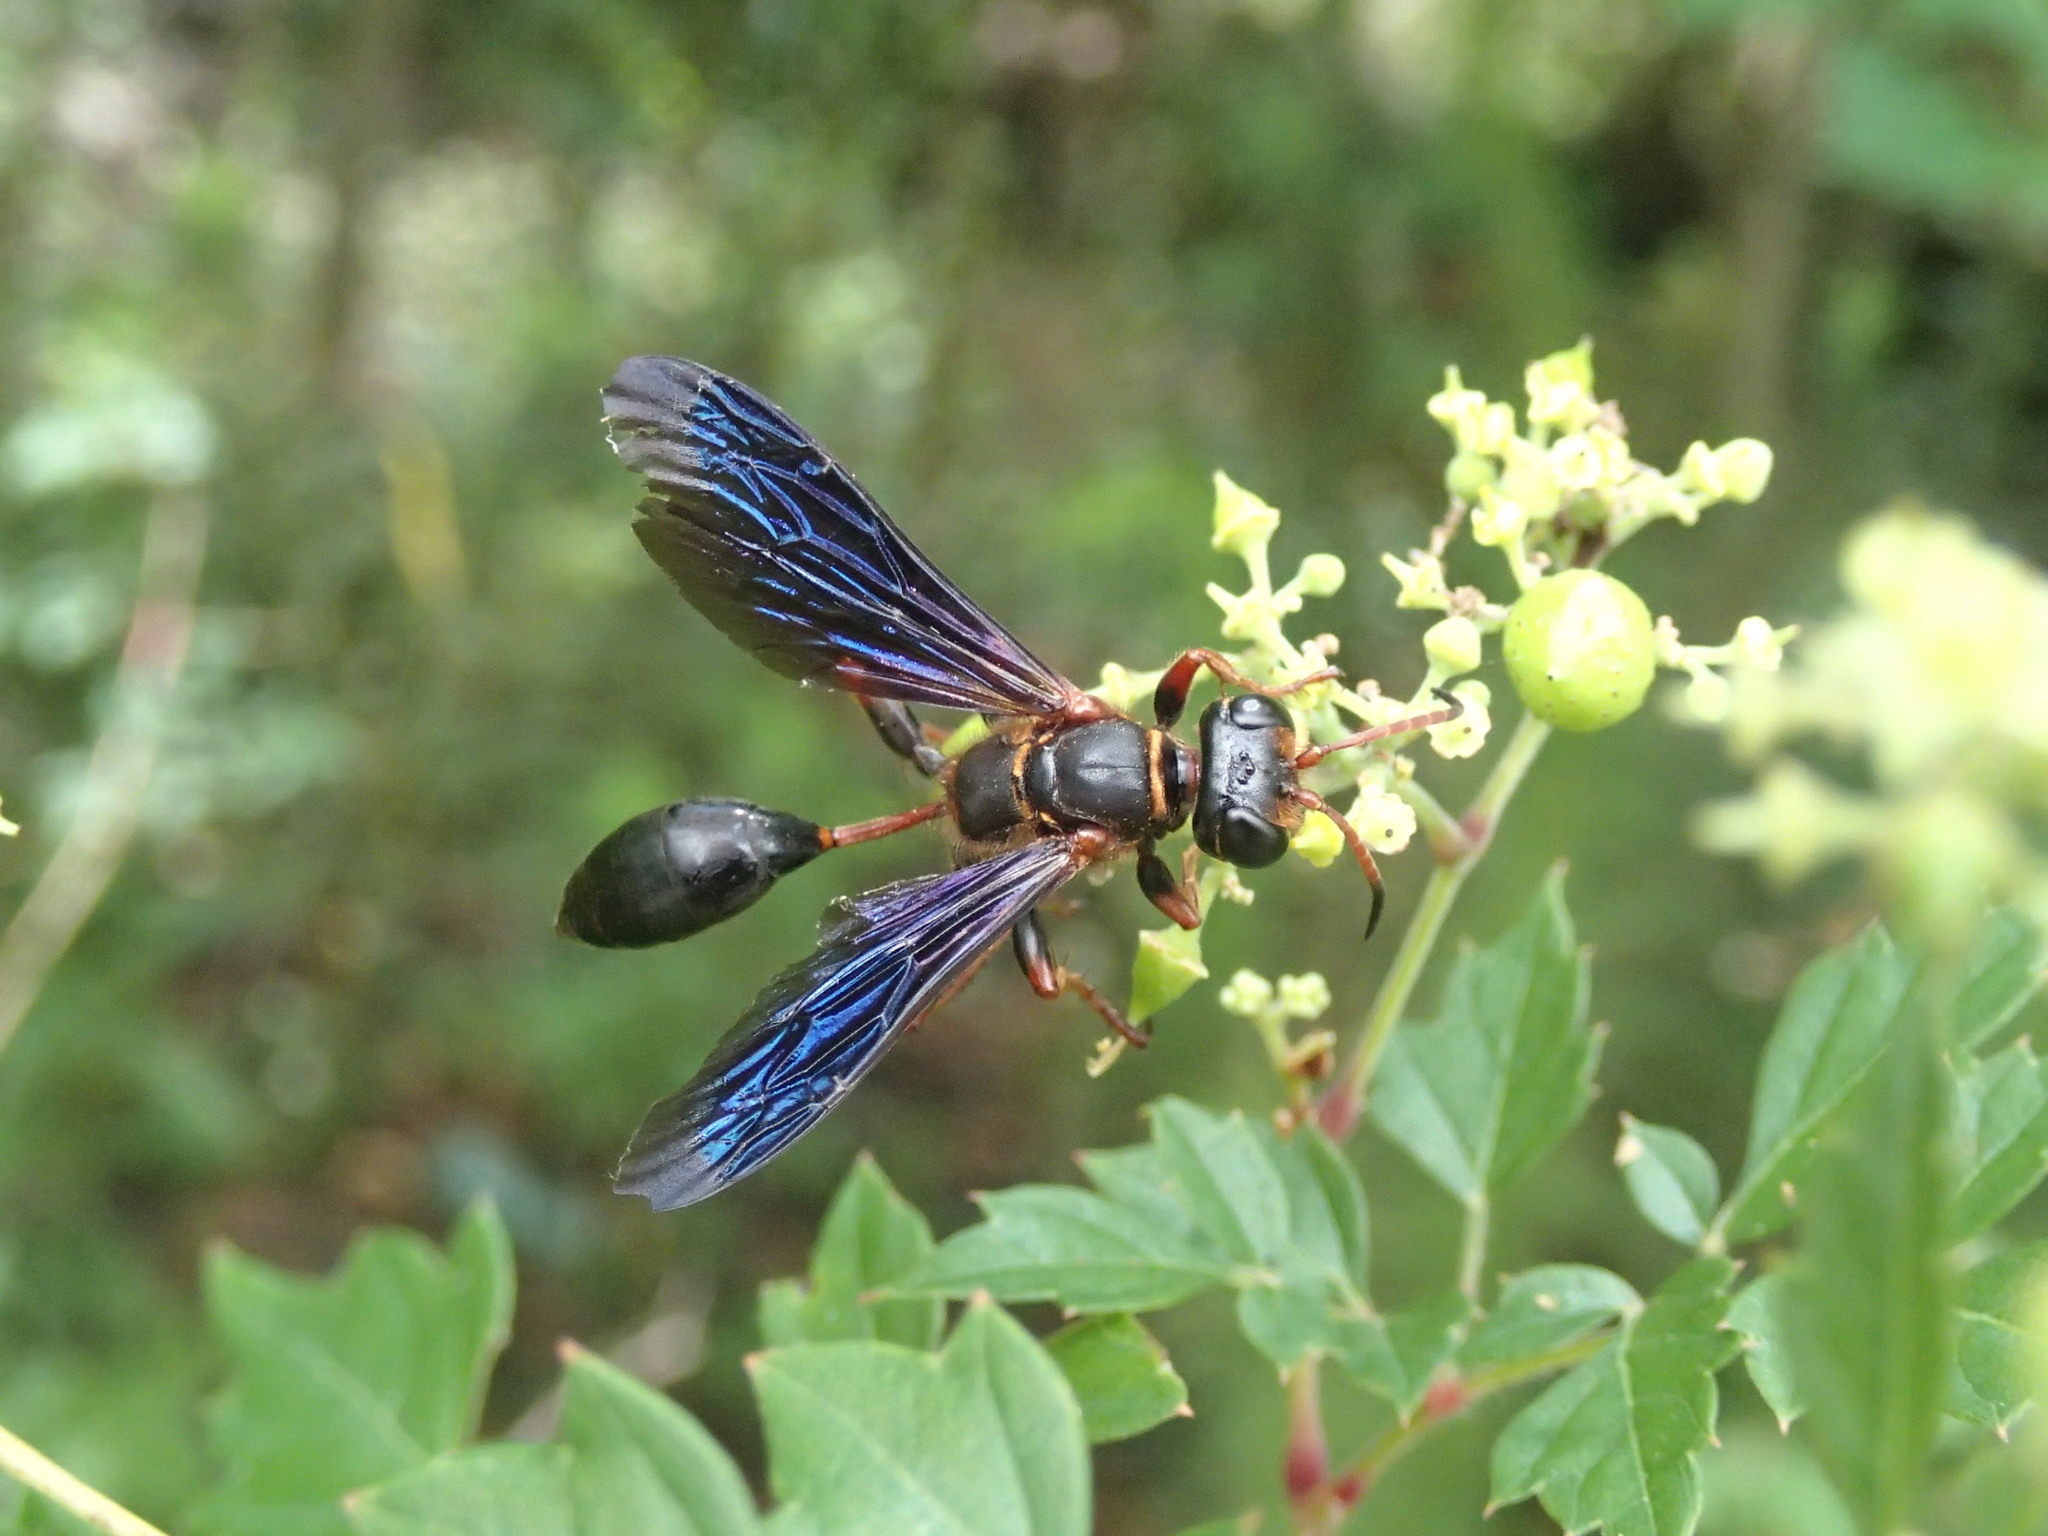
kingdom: Animalia
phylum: Arthropoda
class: Insecta
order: Hymenoptera
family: Sphecidae
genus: Isodontia
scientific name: Isodontia exornata
